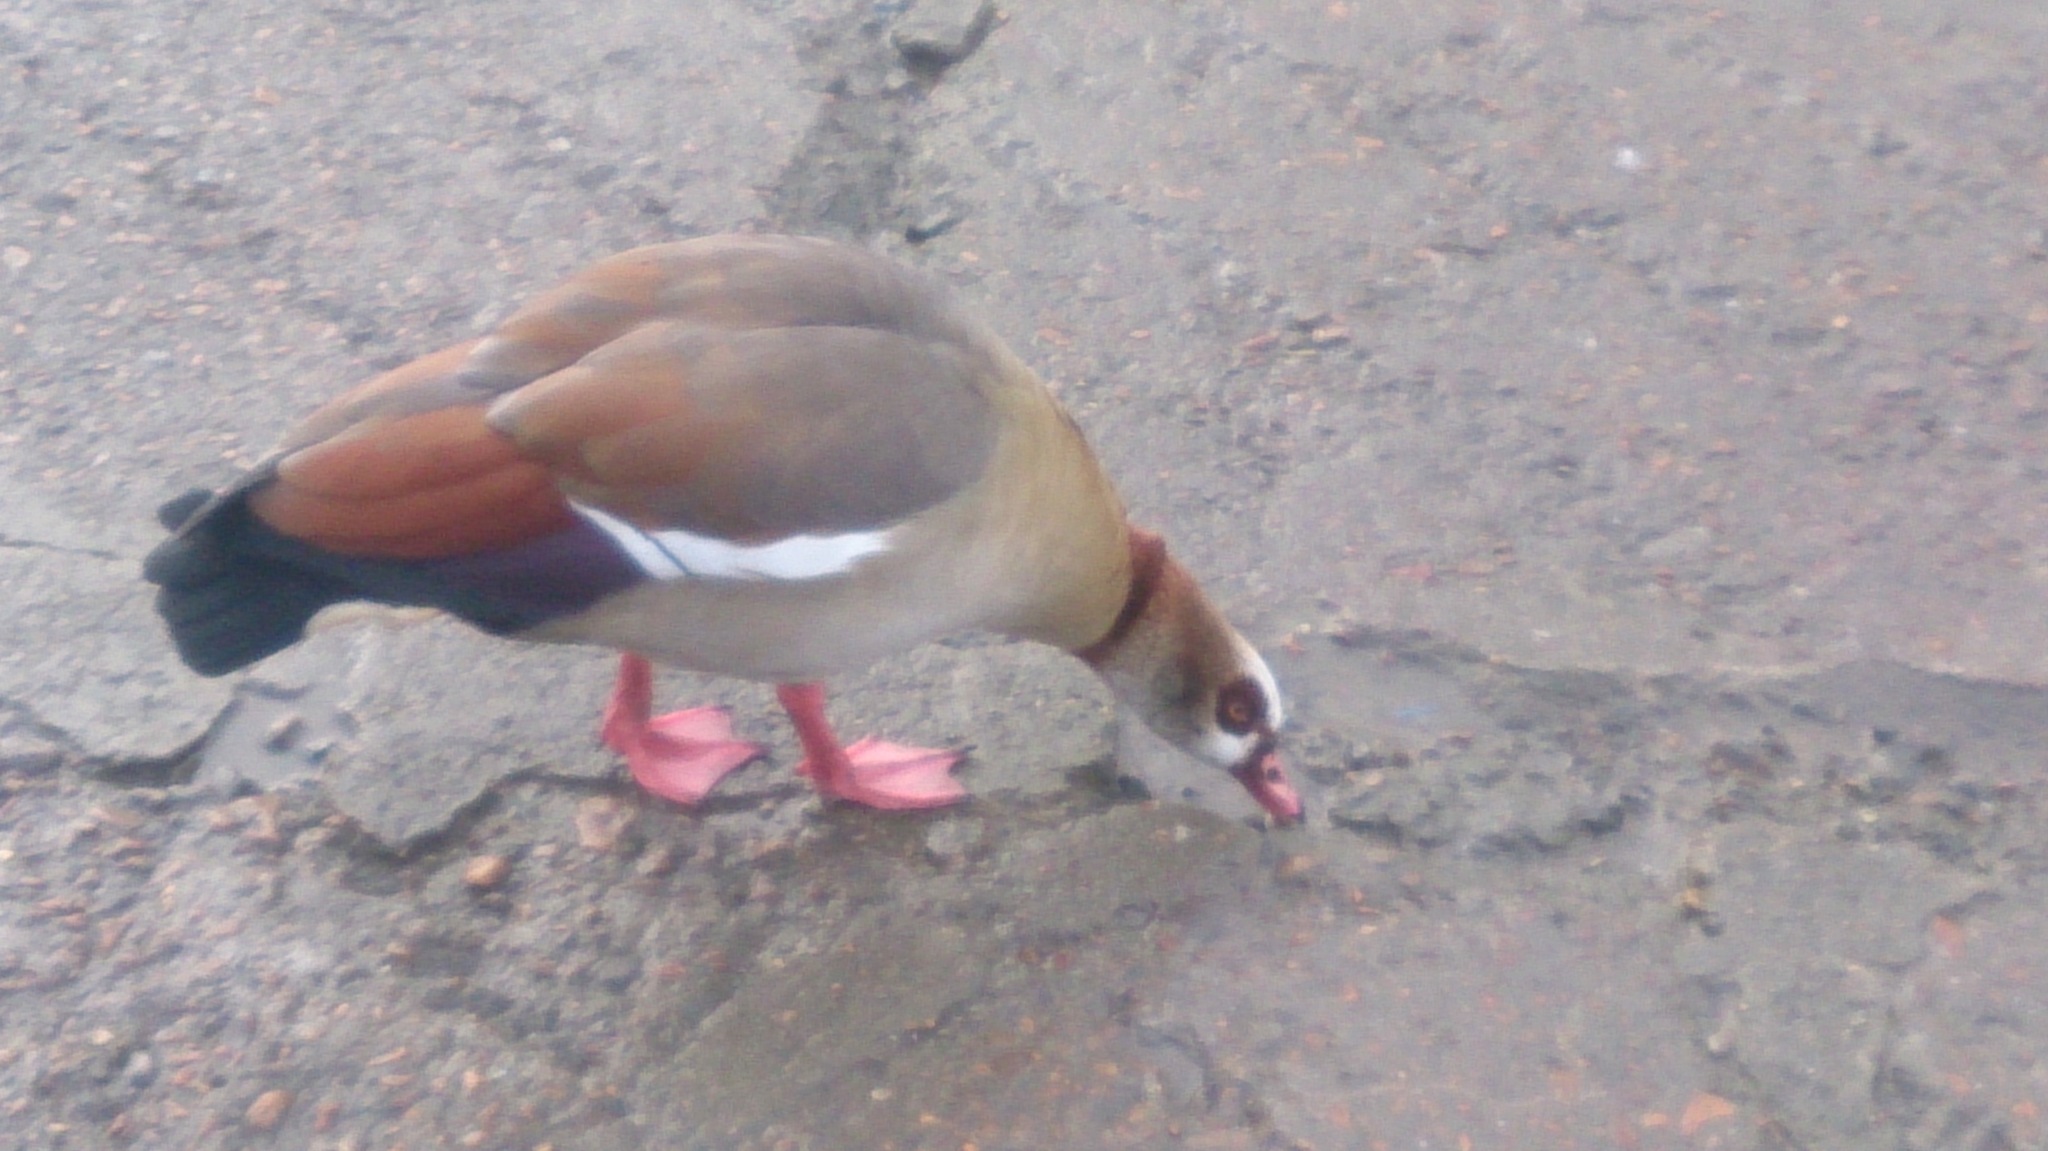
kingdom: Animalia
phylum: Chordata
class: Aves
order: Anseriformes
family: Anatidae
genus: Alopochen
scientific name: Alopochen aegyptiaca
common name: Egyptian goose
